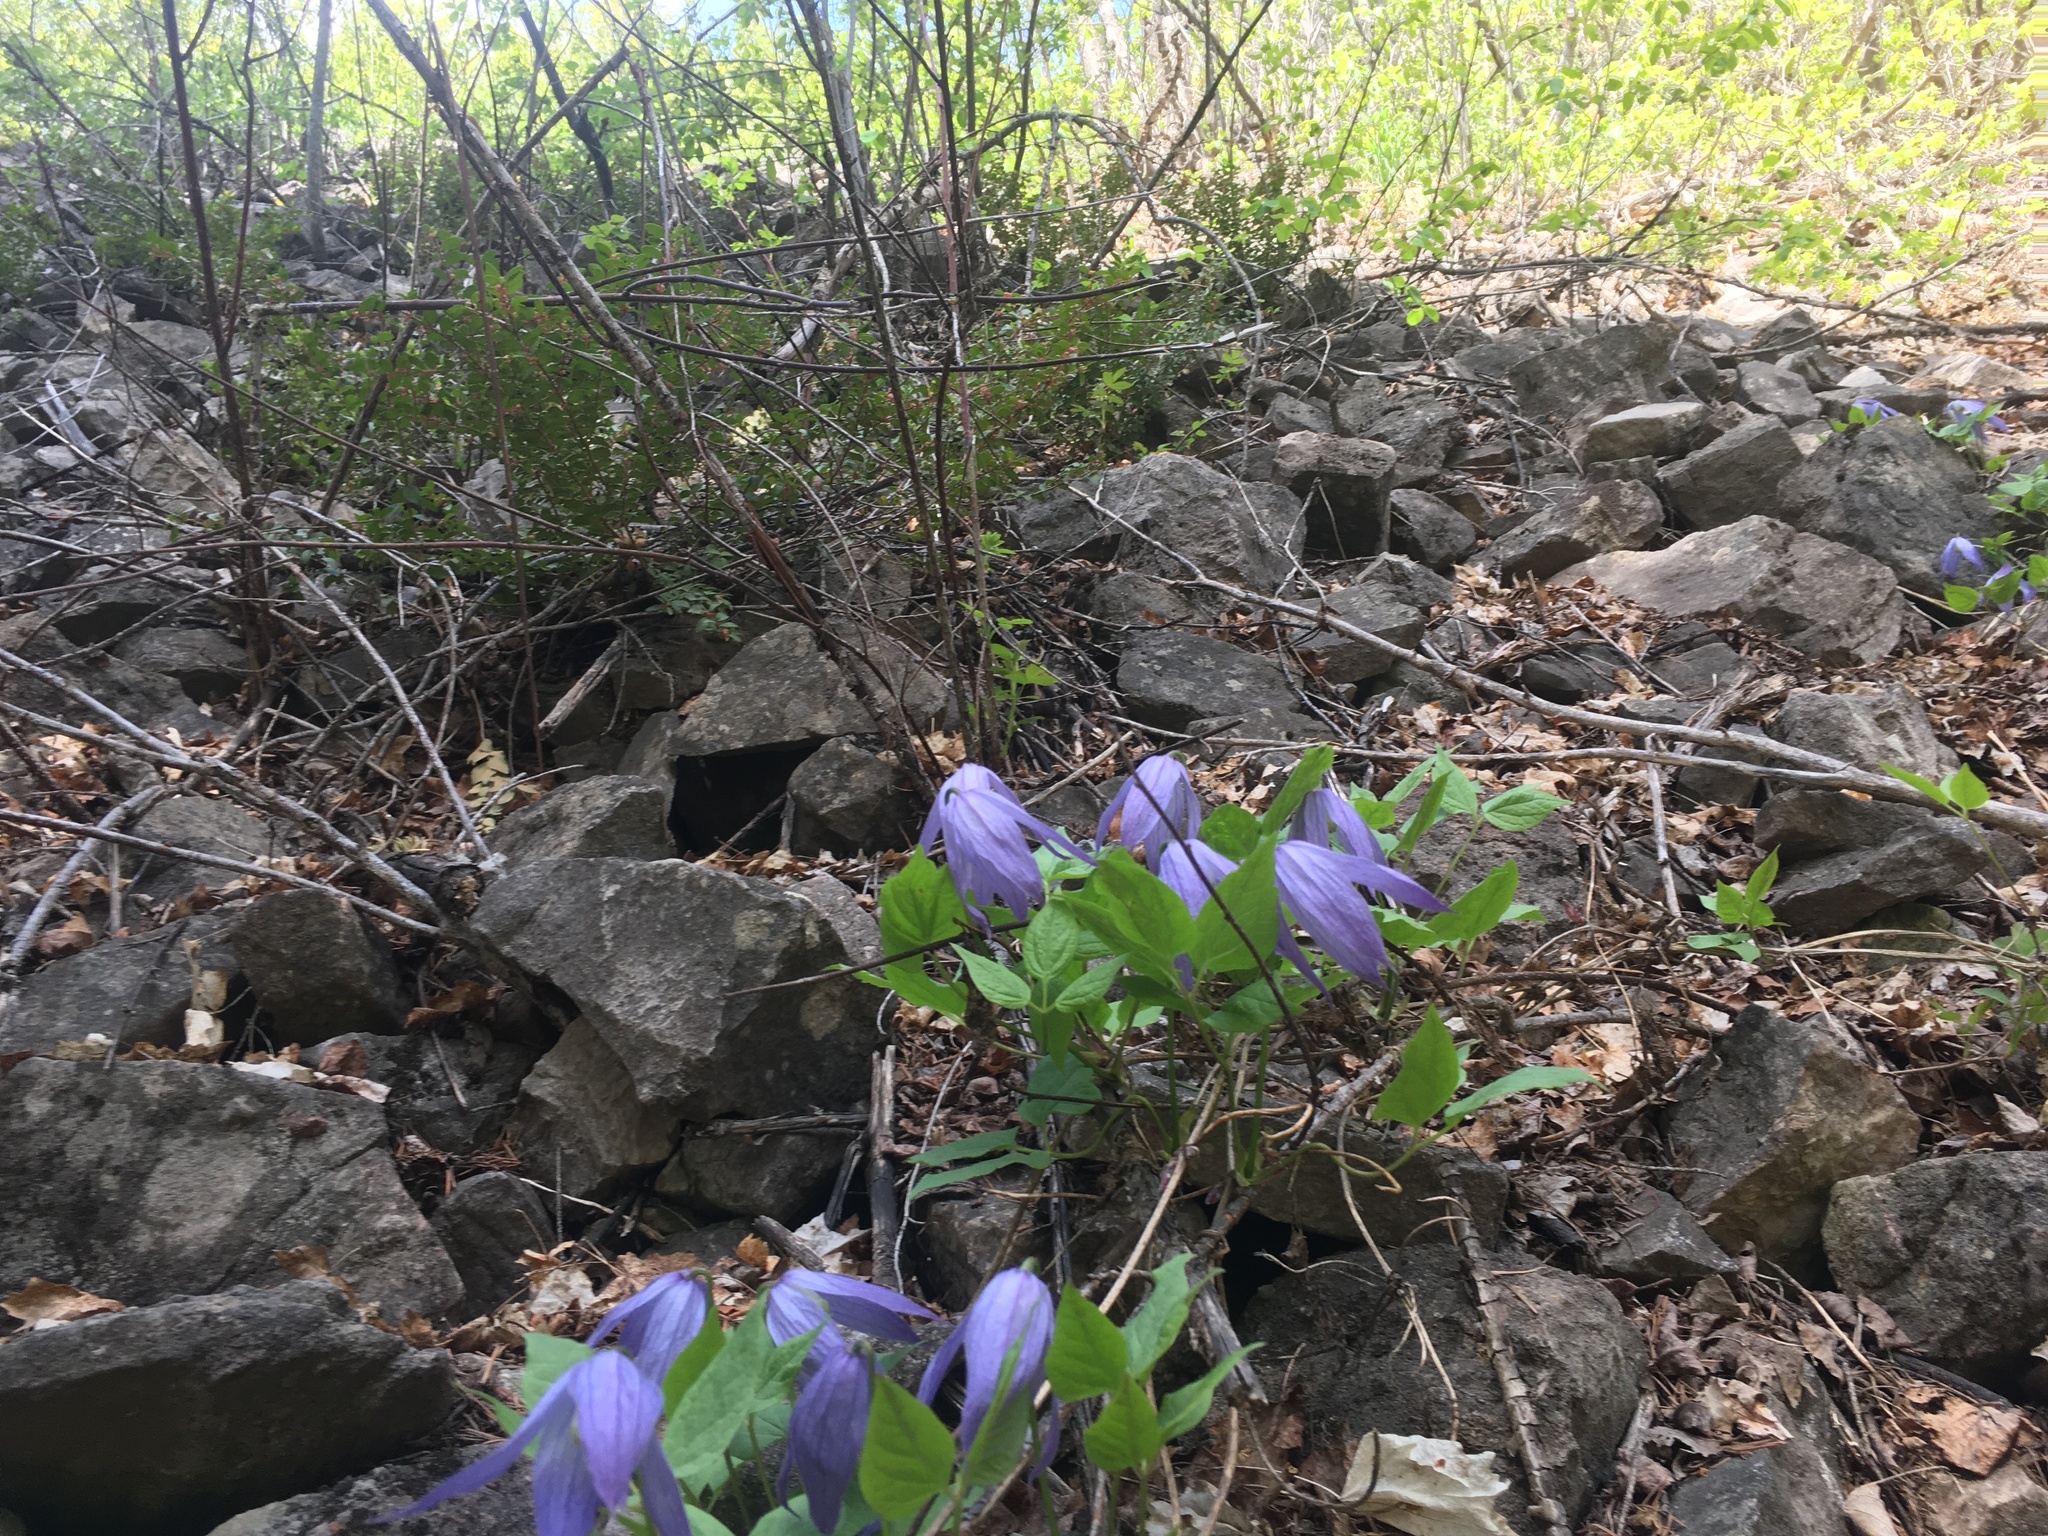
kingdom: Plantae
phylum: Tracheophyta
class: Magnoliopsida
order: Ranunculales
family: Ranunculaceae
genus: Clematis
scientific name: Clematis occidentalis
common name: Purple clematis
